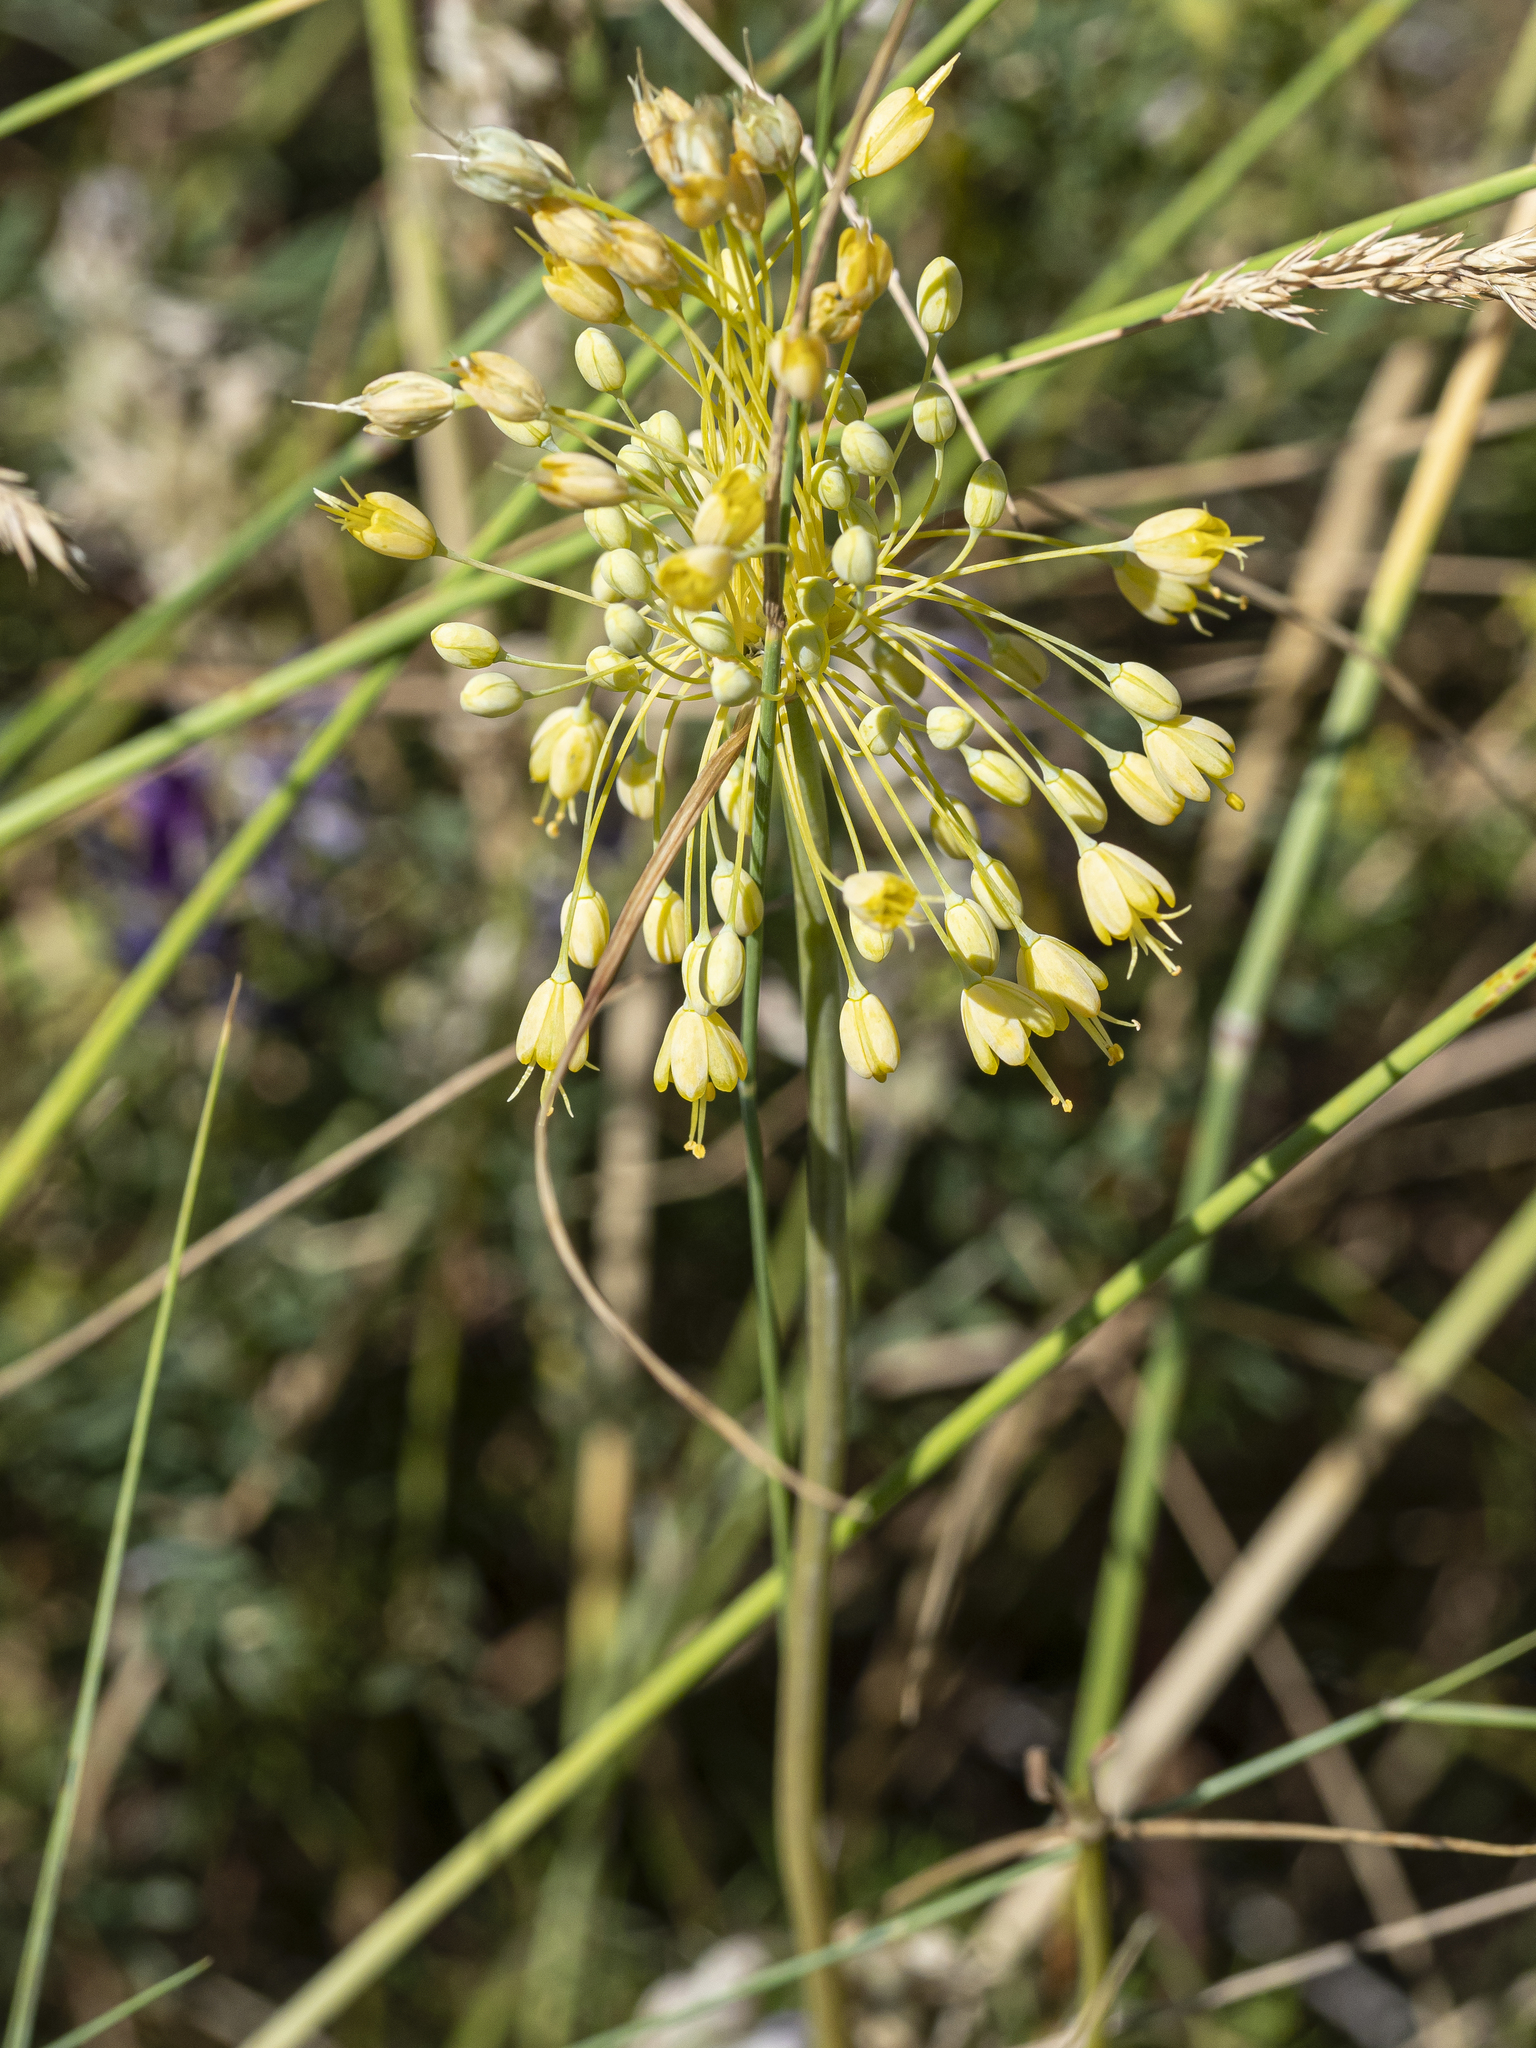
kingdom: Plantae
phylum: Tracheophyta
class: Liliopsida
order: Asparagales
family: Amaryllidaceae
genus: Allium
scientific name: Allium flavum
